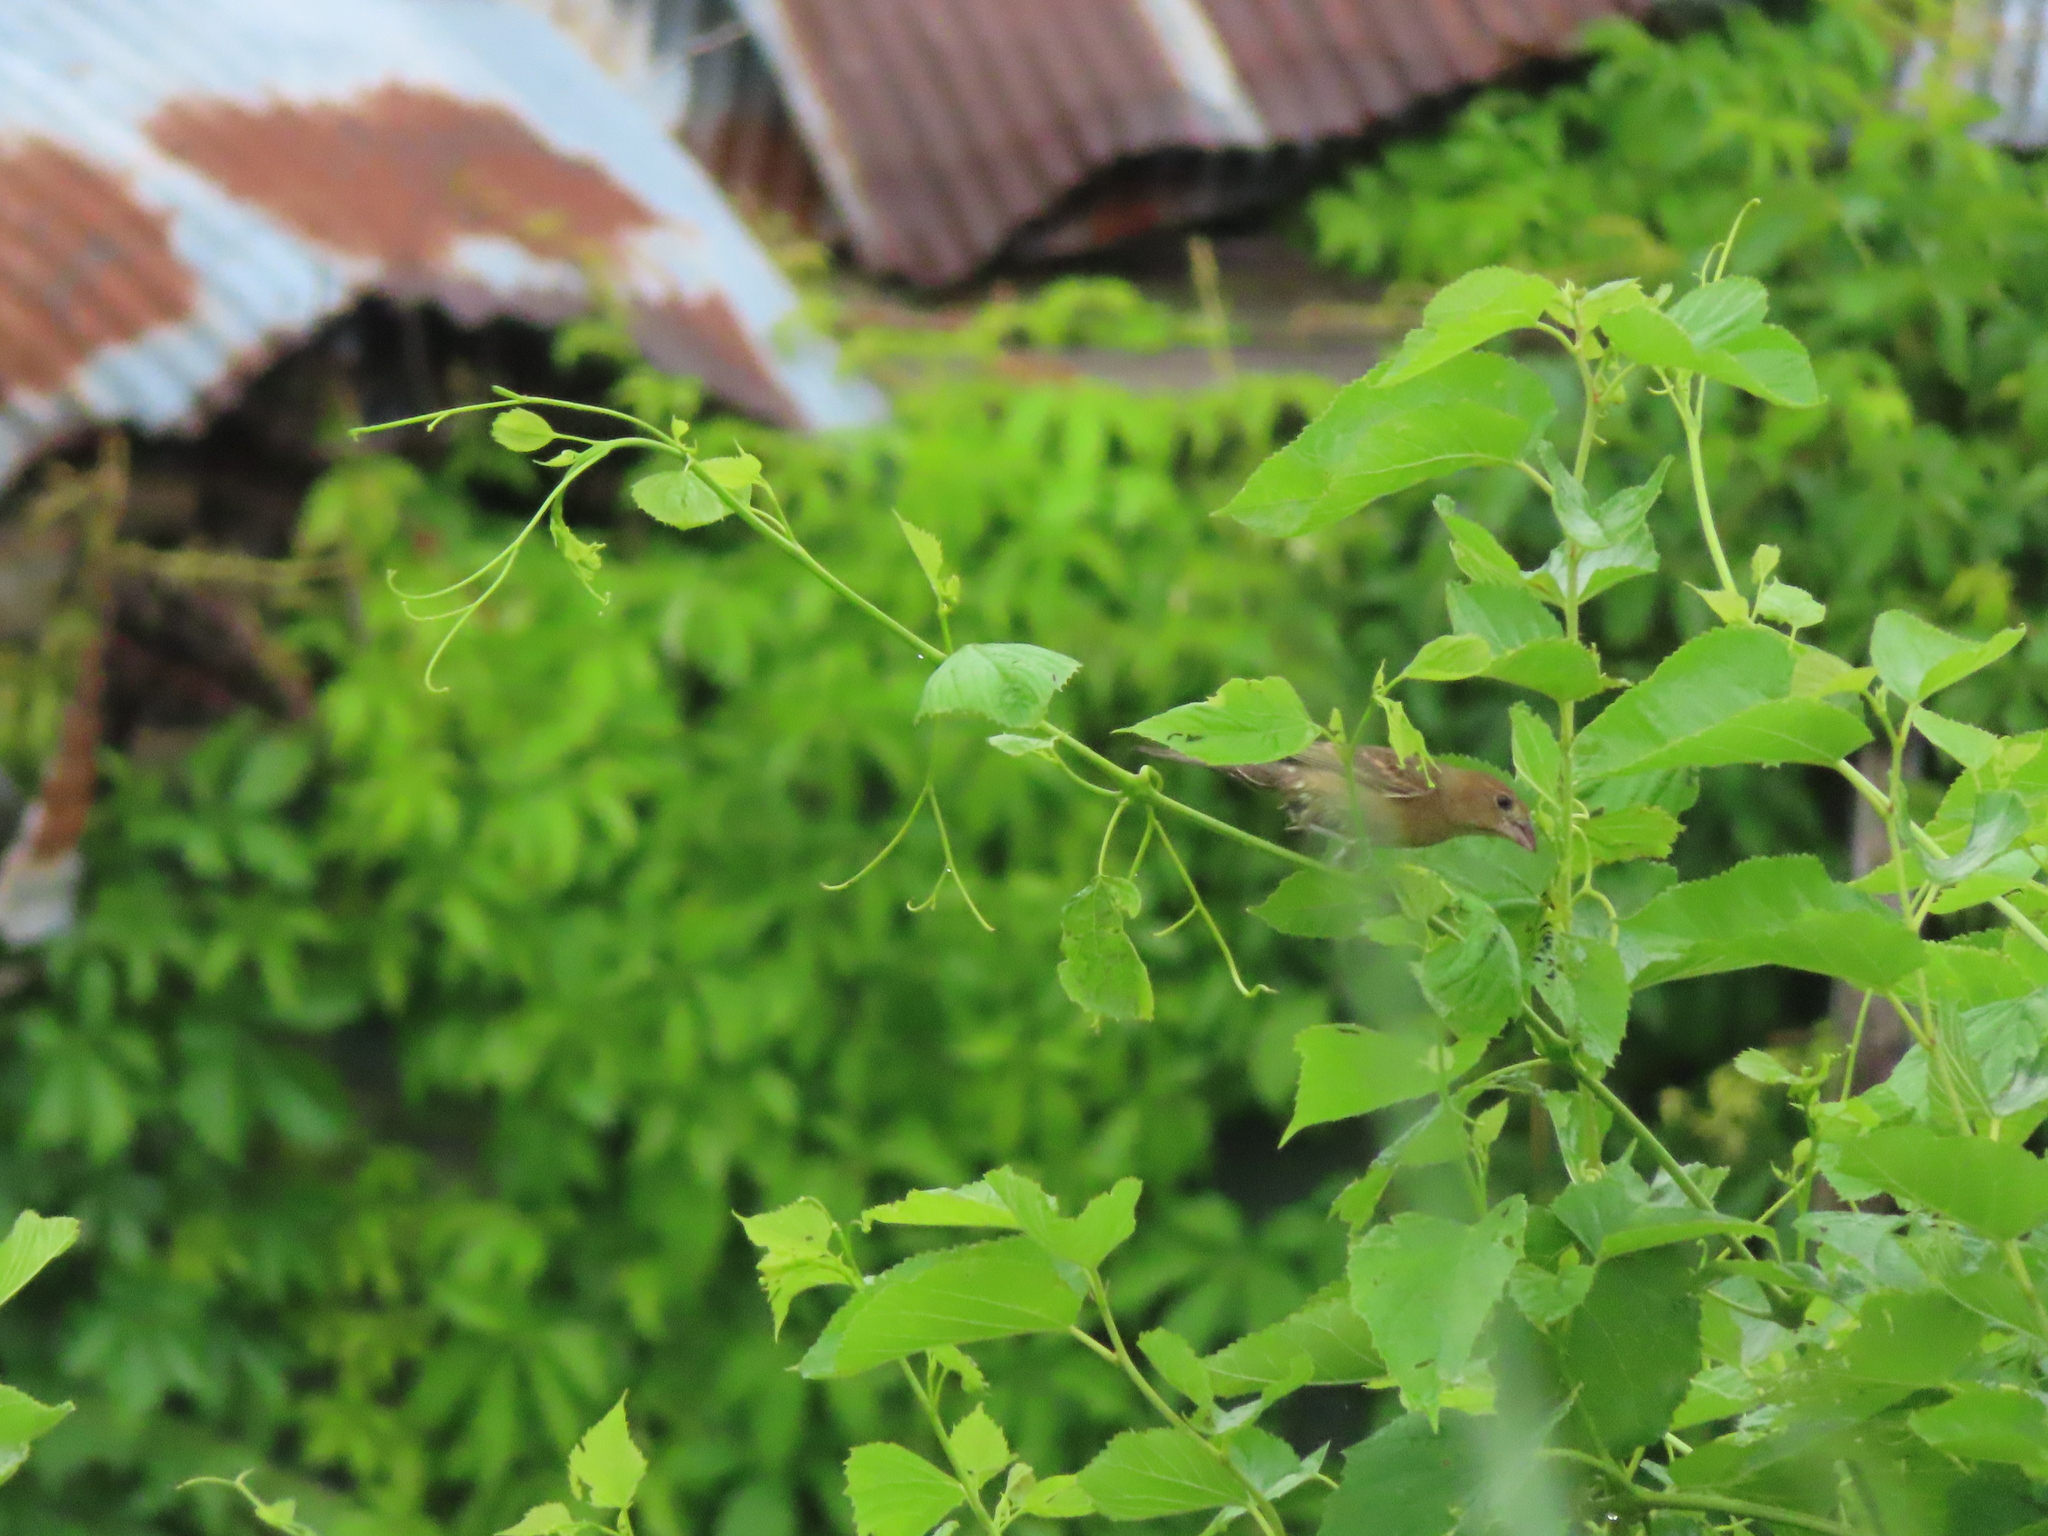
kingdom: Animalia
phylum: Chordata
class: Aves
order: Passeriformes
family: Cardinalidae
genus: Passerina
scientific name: Passerina caerulea
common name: Blue grosbeak
